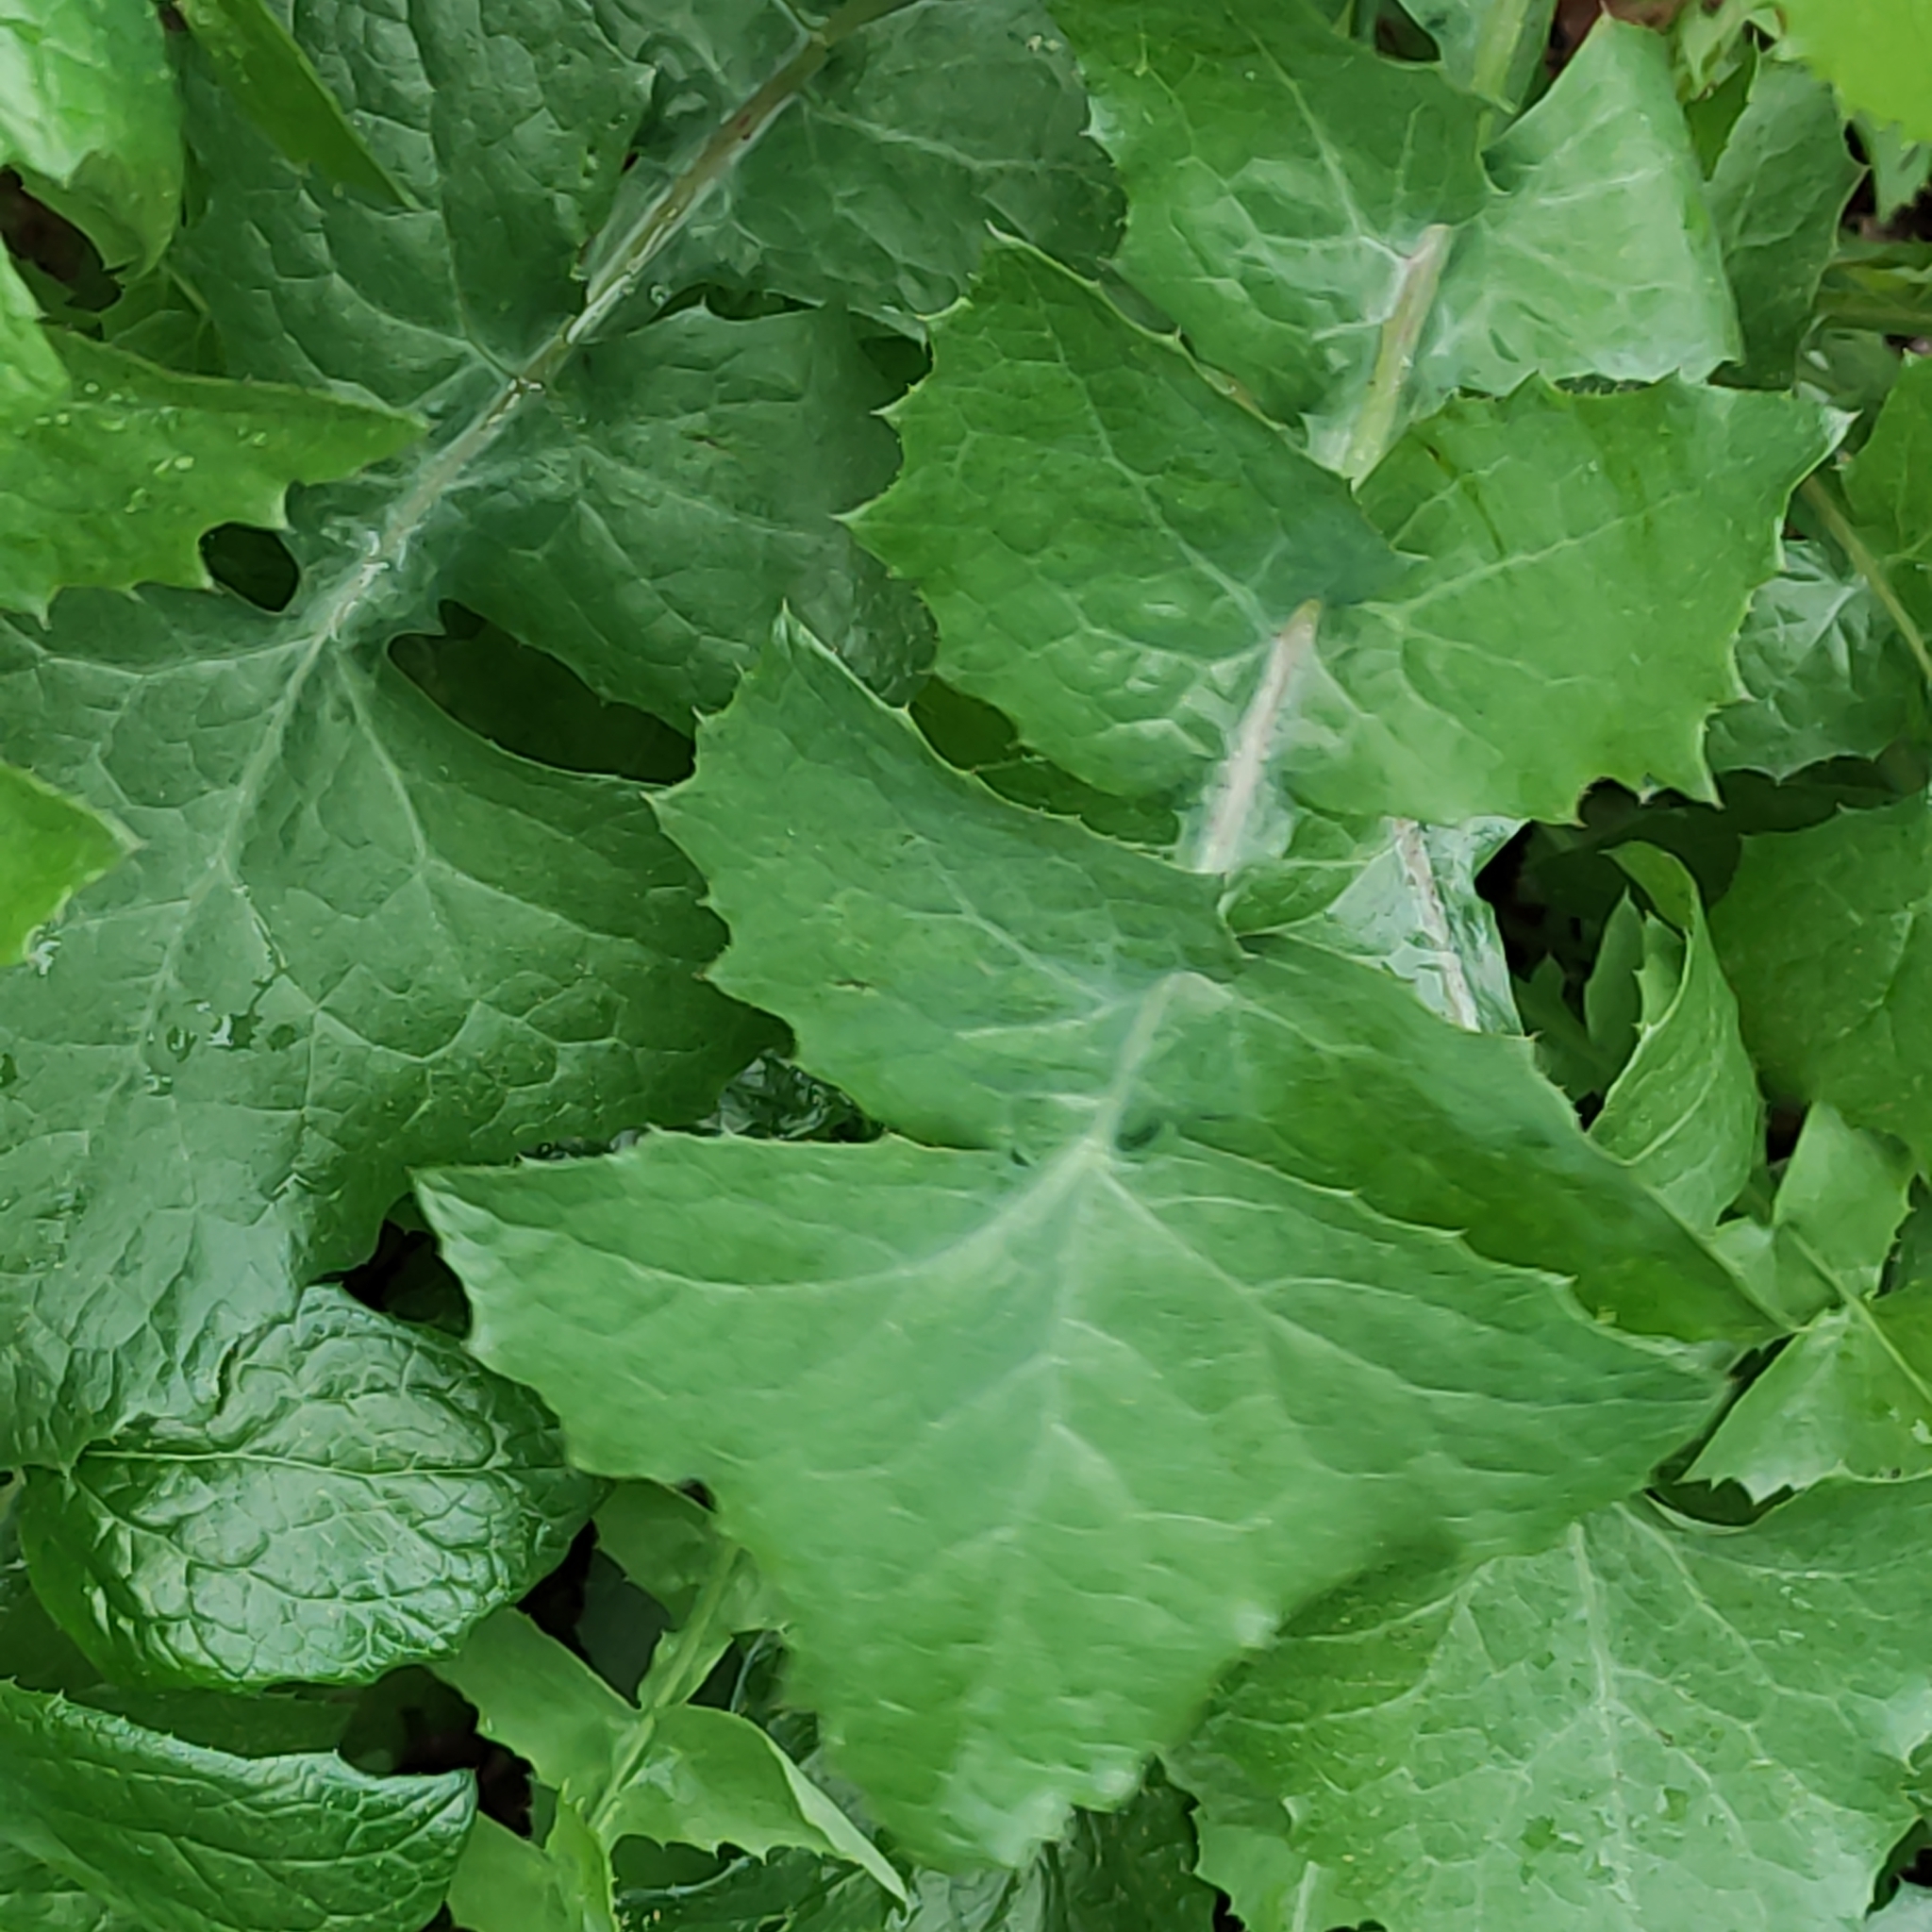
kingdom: Plantae
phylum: Tracheophyta
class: Magnoliopsida
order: Asterales
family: Asteraceae
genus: Sonchus
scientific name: Sonchus oleraceus
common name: Common sowthistle
